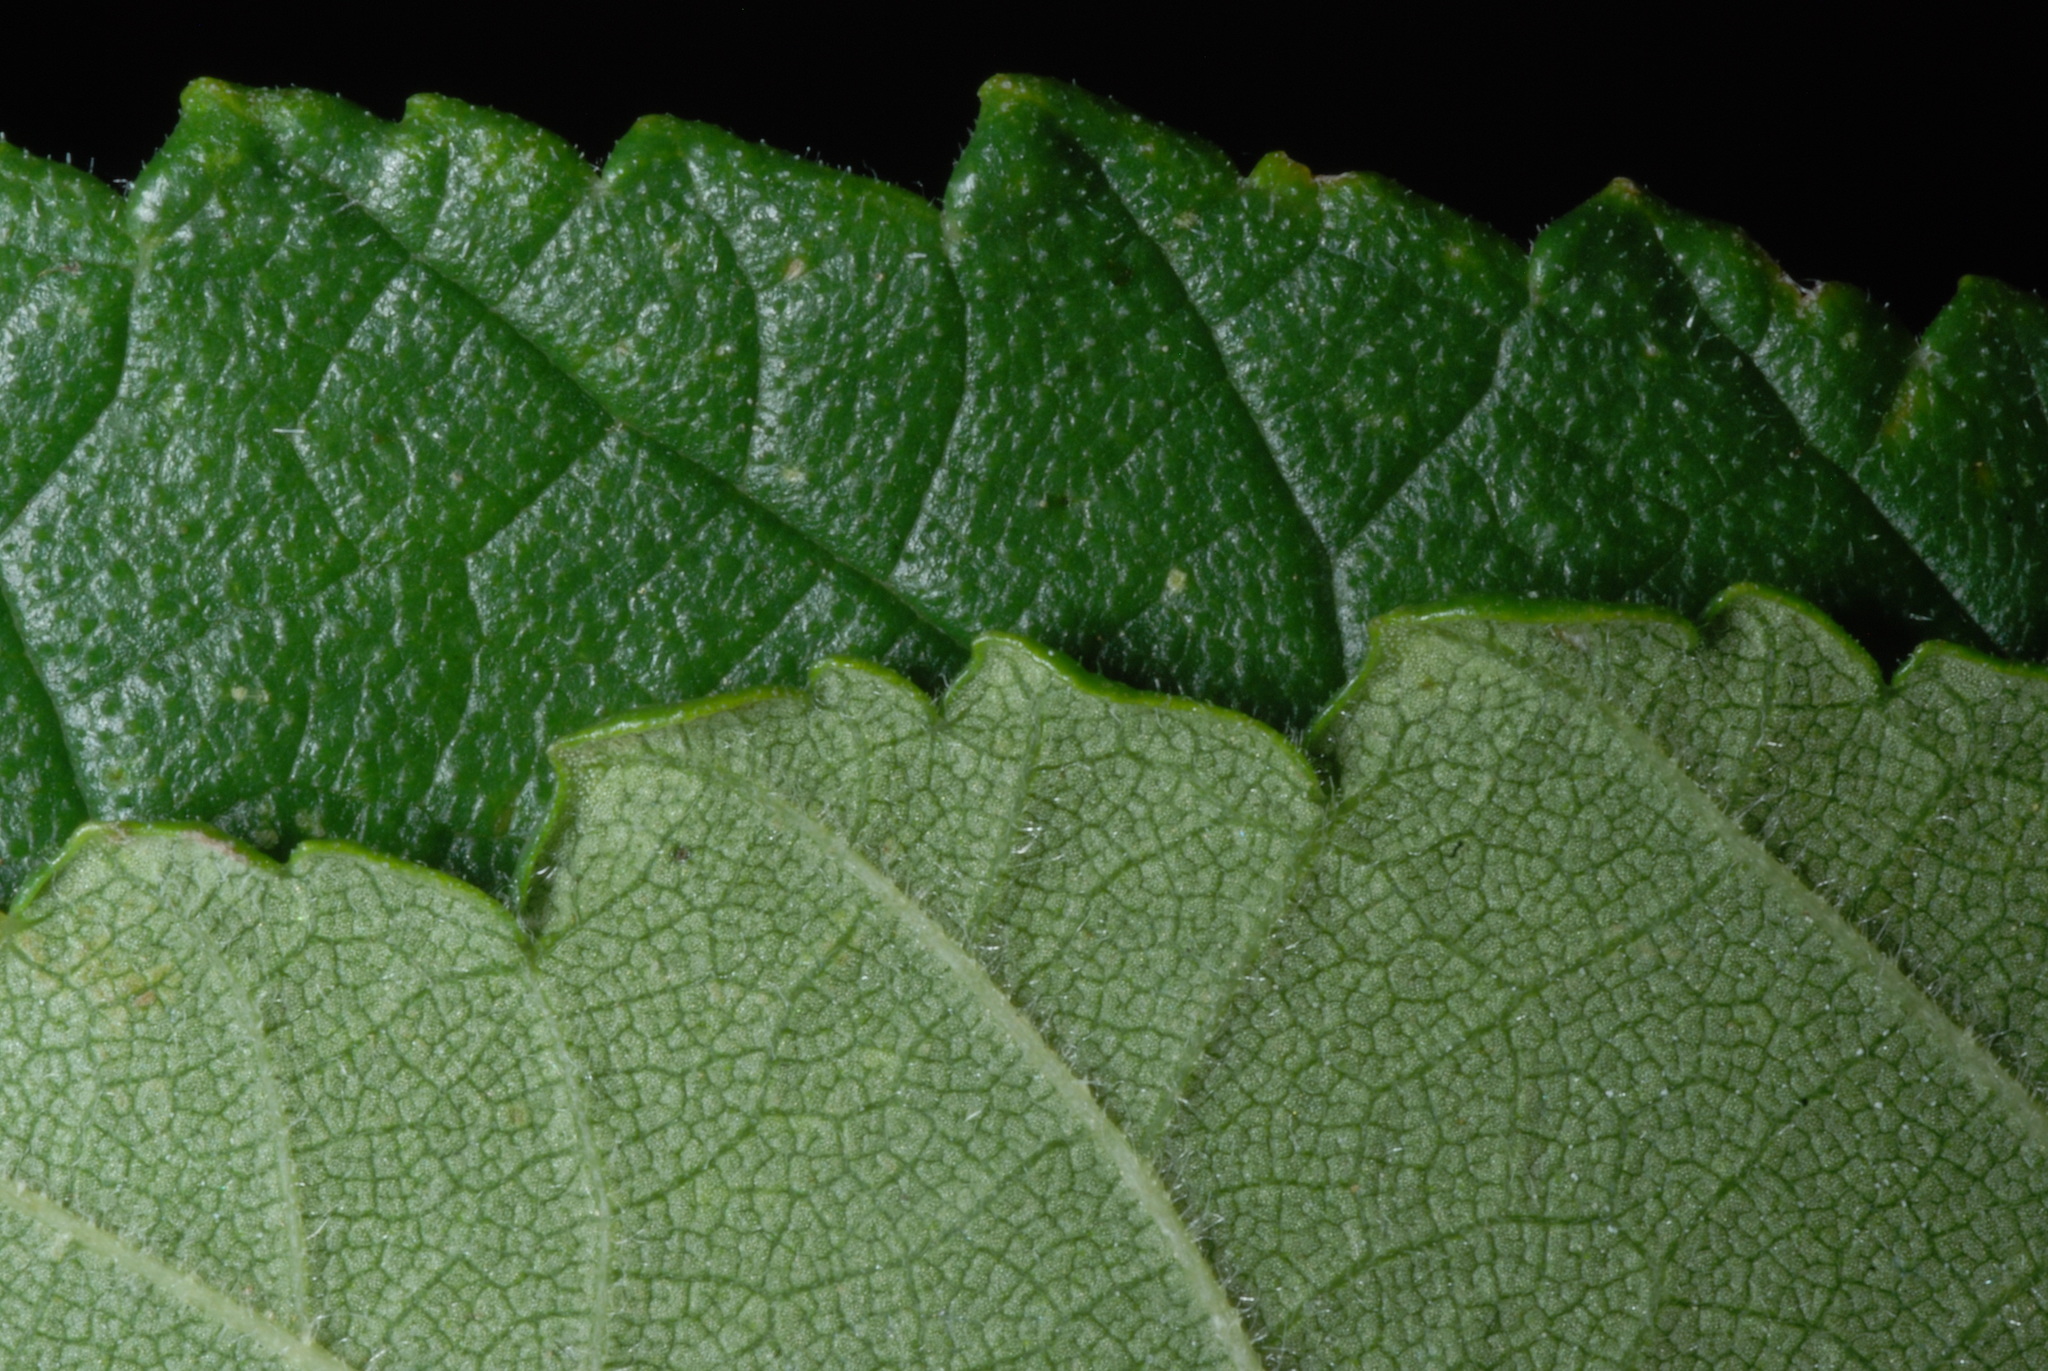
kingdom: Plantae
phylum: Tracheophyta
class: Magnoliopsida
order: Rosales
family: Ulmaceae
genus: Ulmus
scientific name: Ulmus rubra
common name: Slippery elm
